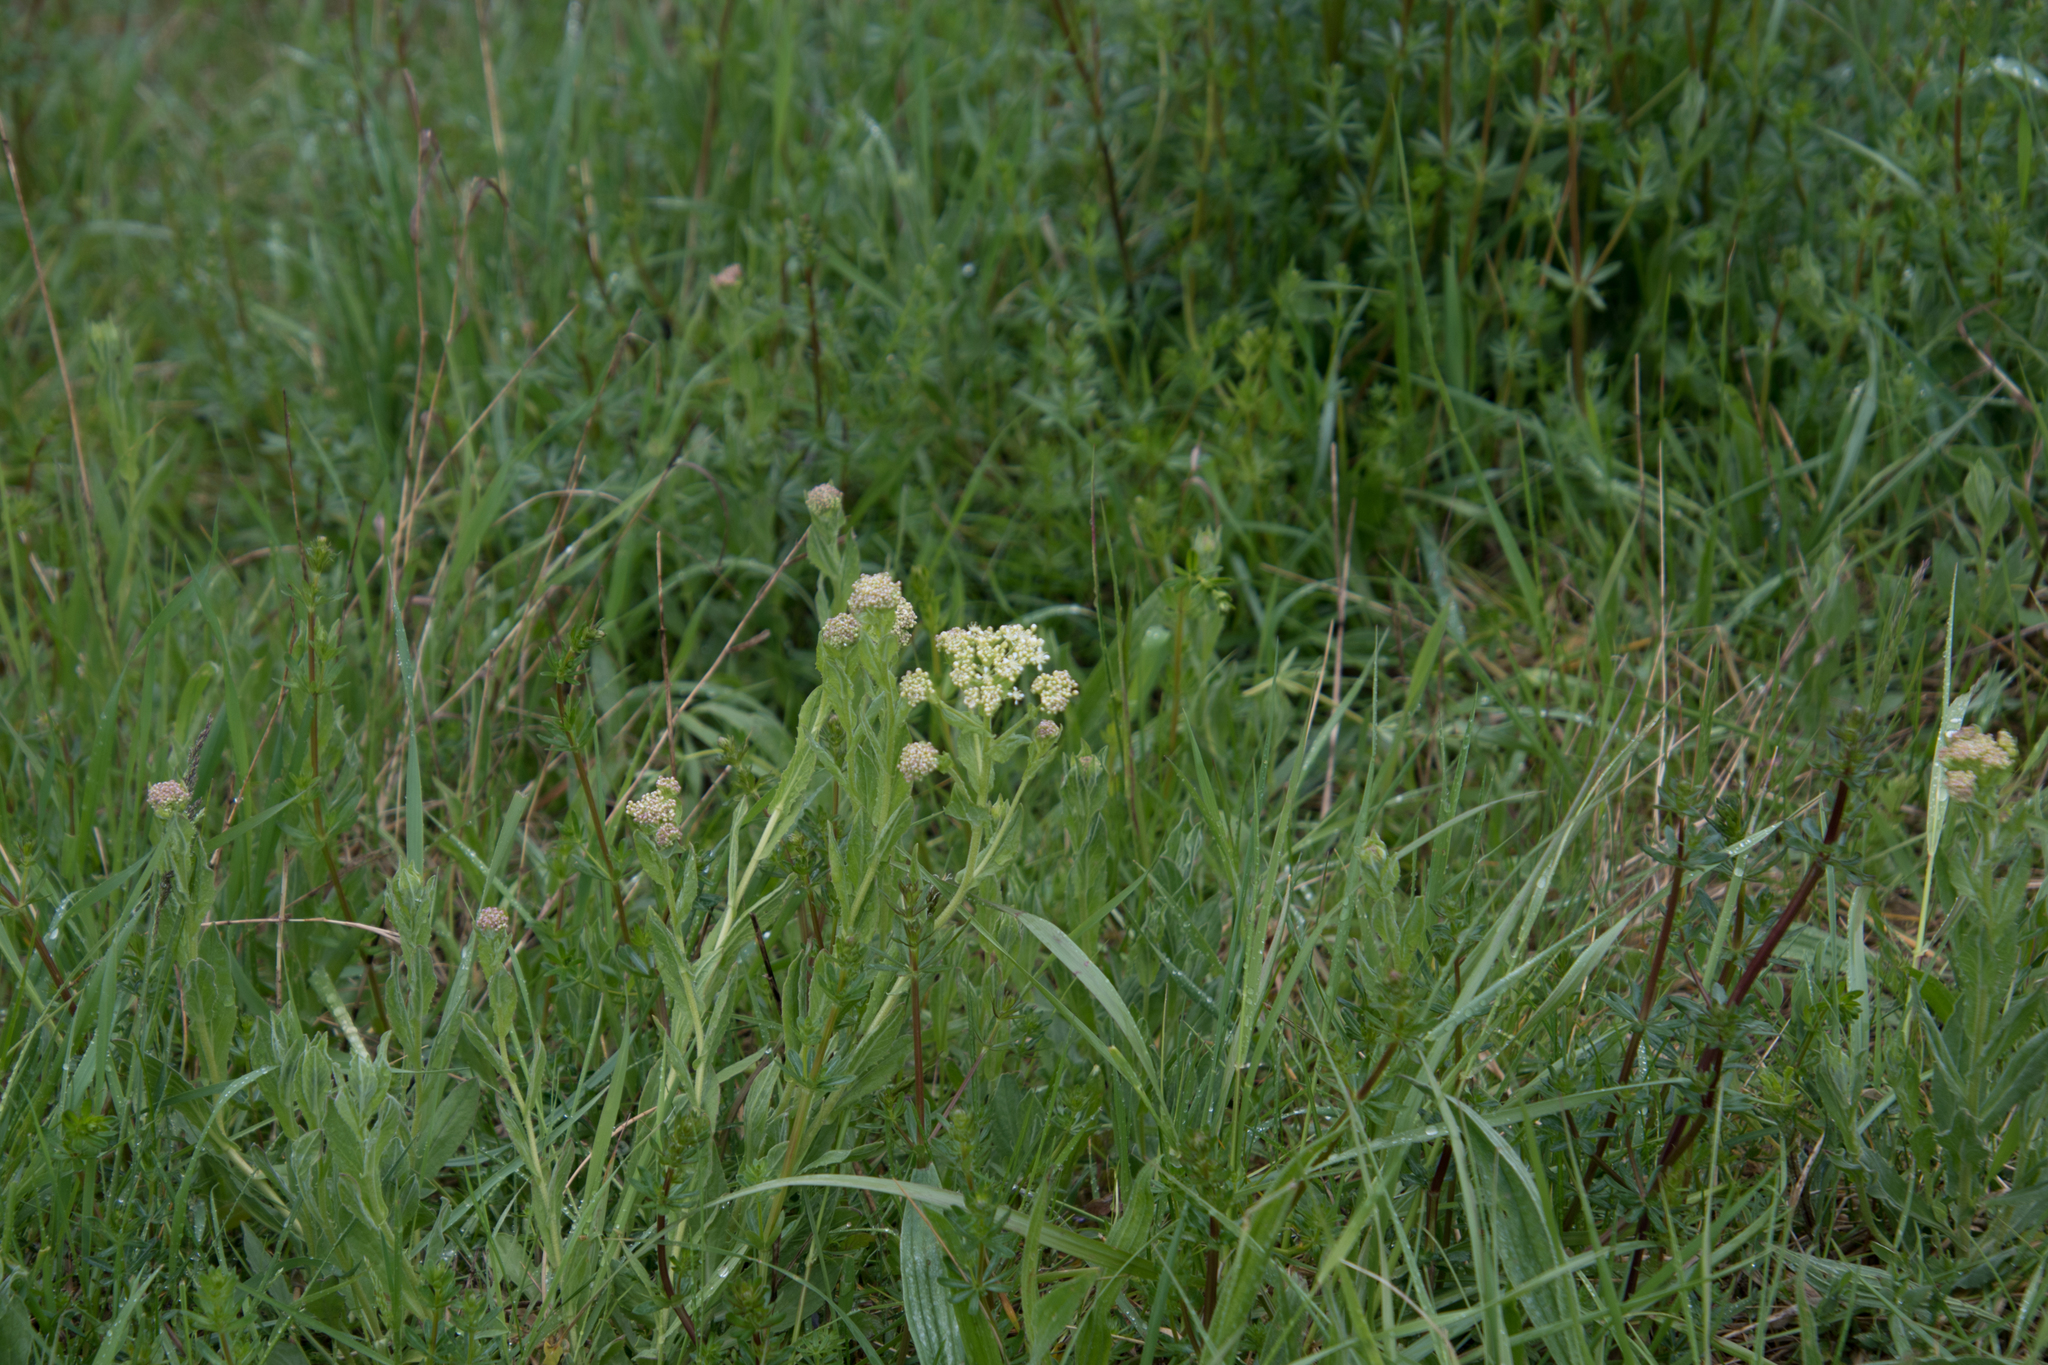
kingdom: Plantae
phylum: Tracheophyta
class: Magnoliopsida
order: Brassicales
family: Brassicaceae
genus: Lepidium
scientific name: Lepidium draba
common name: Hoary cress
